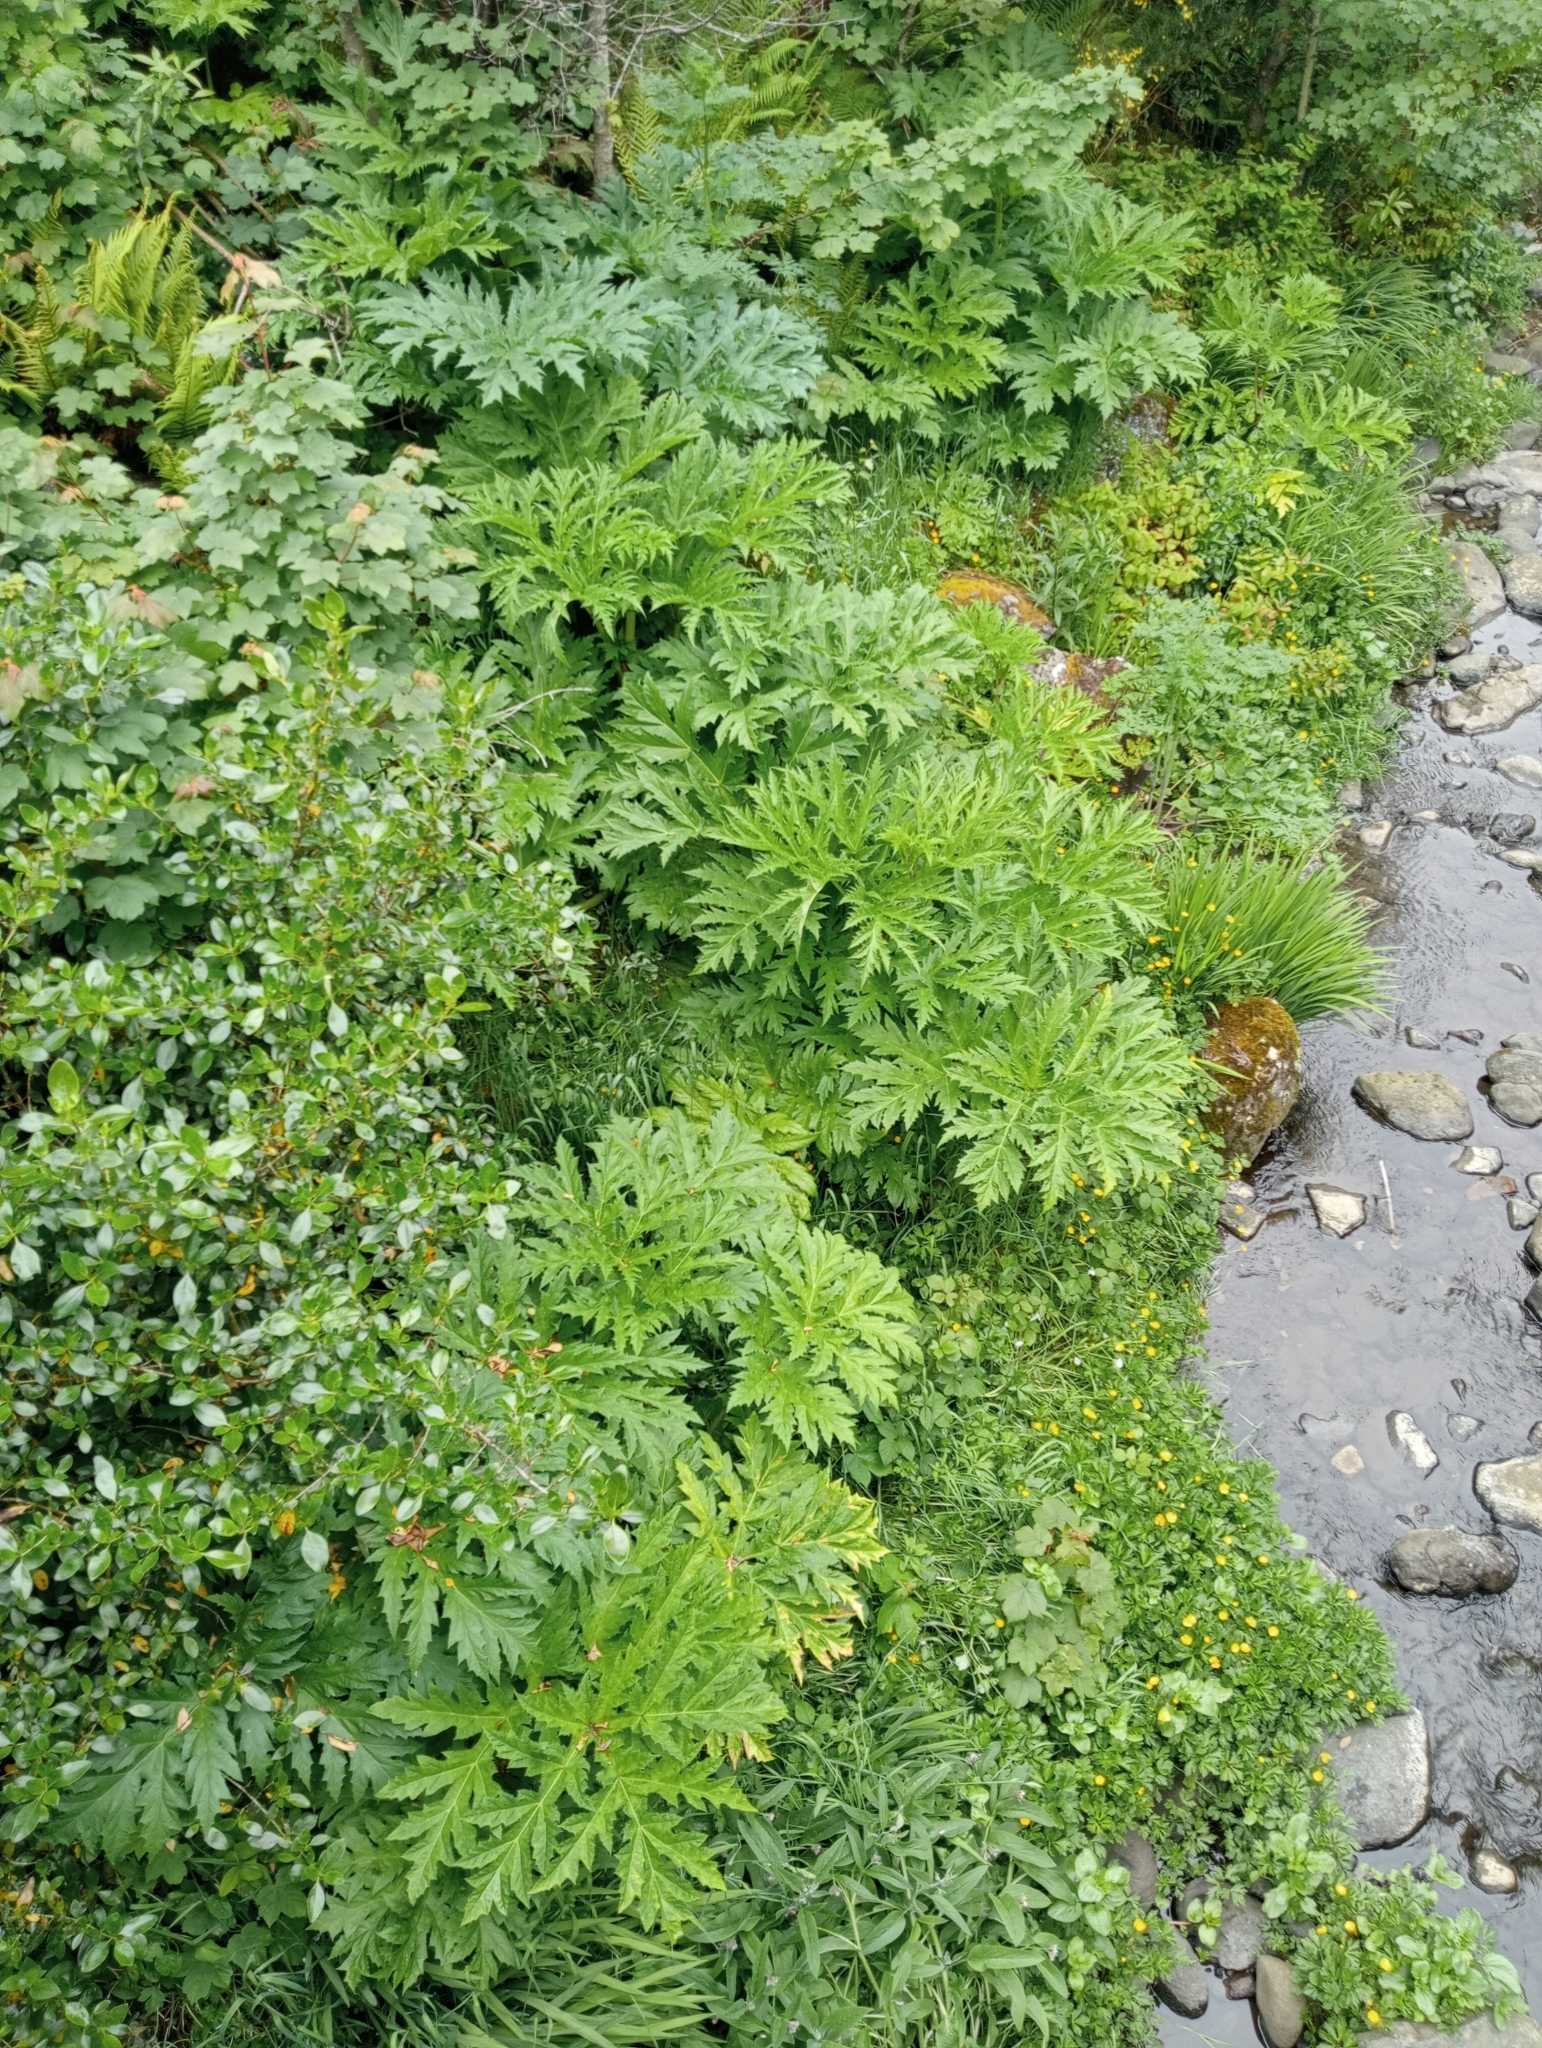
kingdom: Plantae
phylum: Tracheophyta
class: Magnoliopsida
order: Apiales
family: Apiaceae
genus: Heracleum
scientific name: Heracleum mantegazzianum
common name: Giant hogweed
